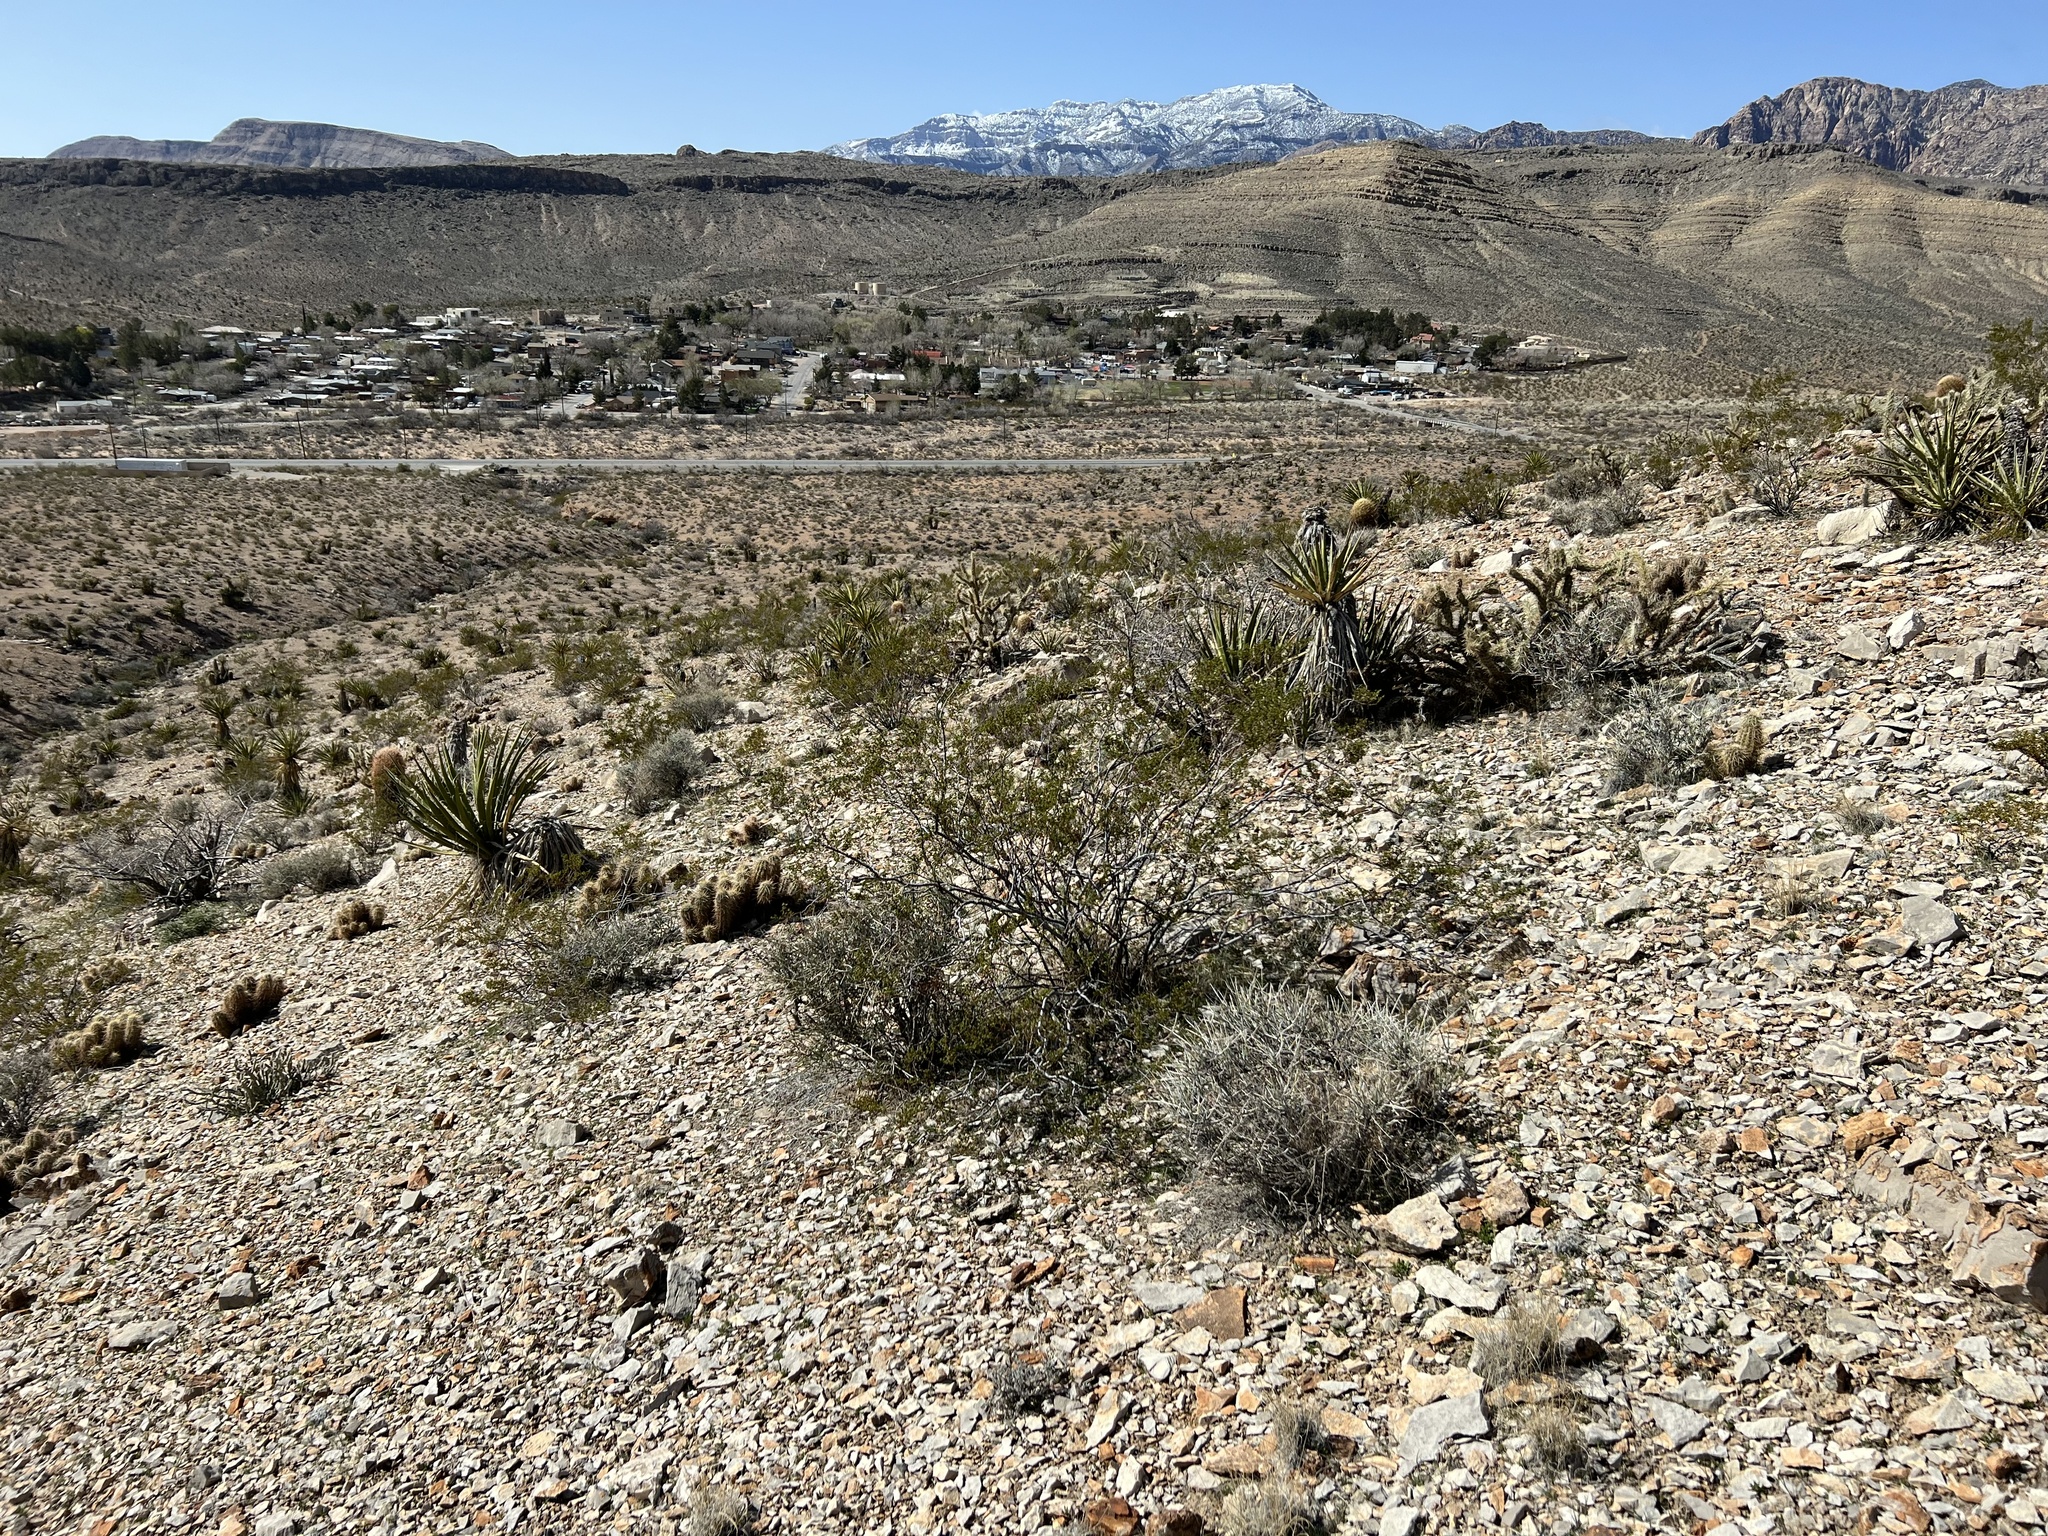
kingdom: Plantae
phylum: Tracheophyta
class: Magnoliopsida
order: Zygophyllales
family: Zygophyllaceae
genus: Larrea
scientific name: Larrea tridentata
